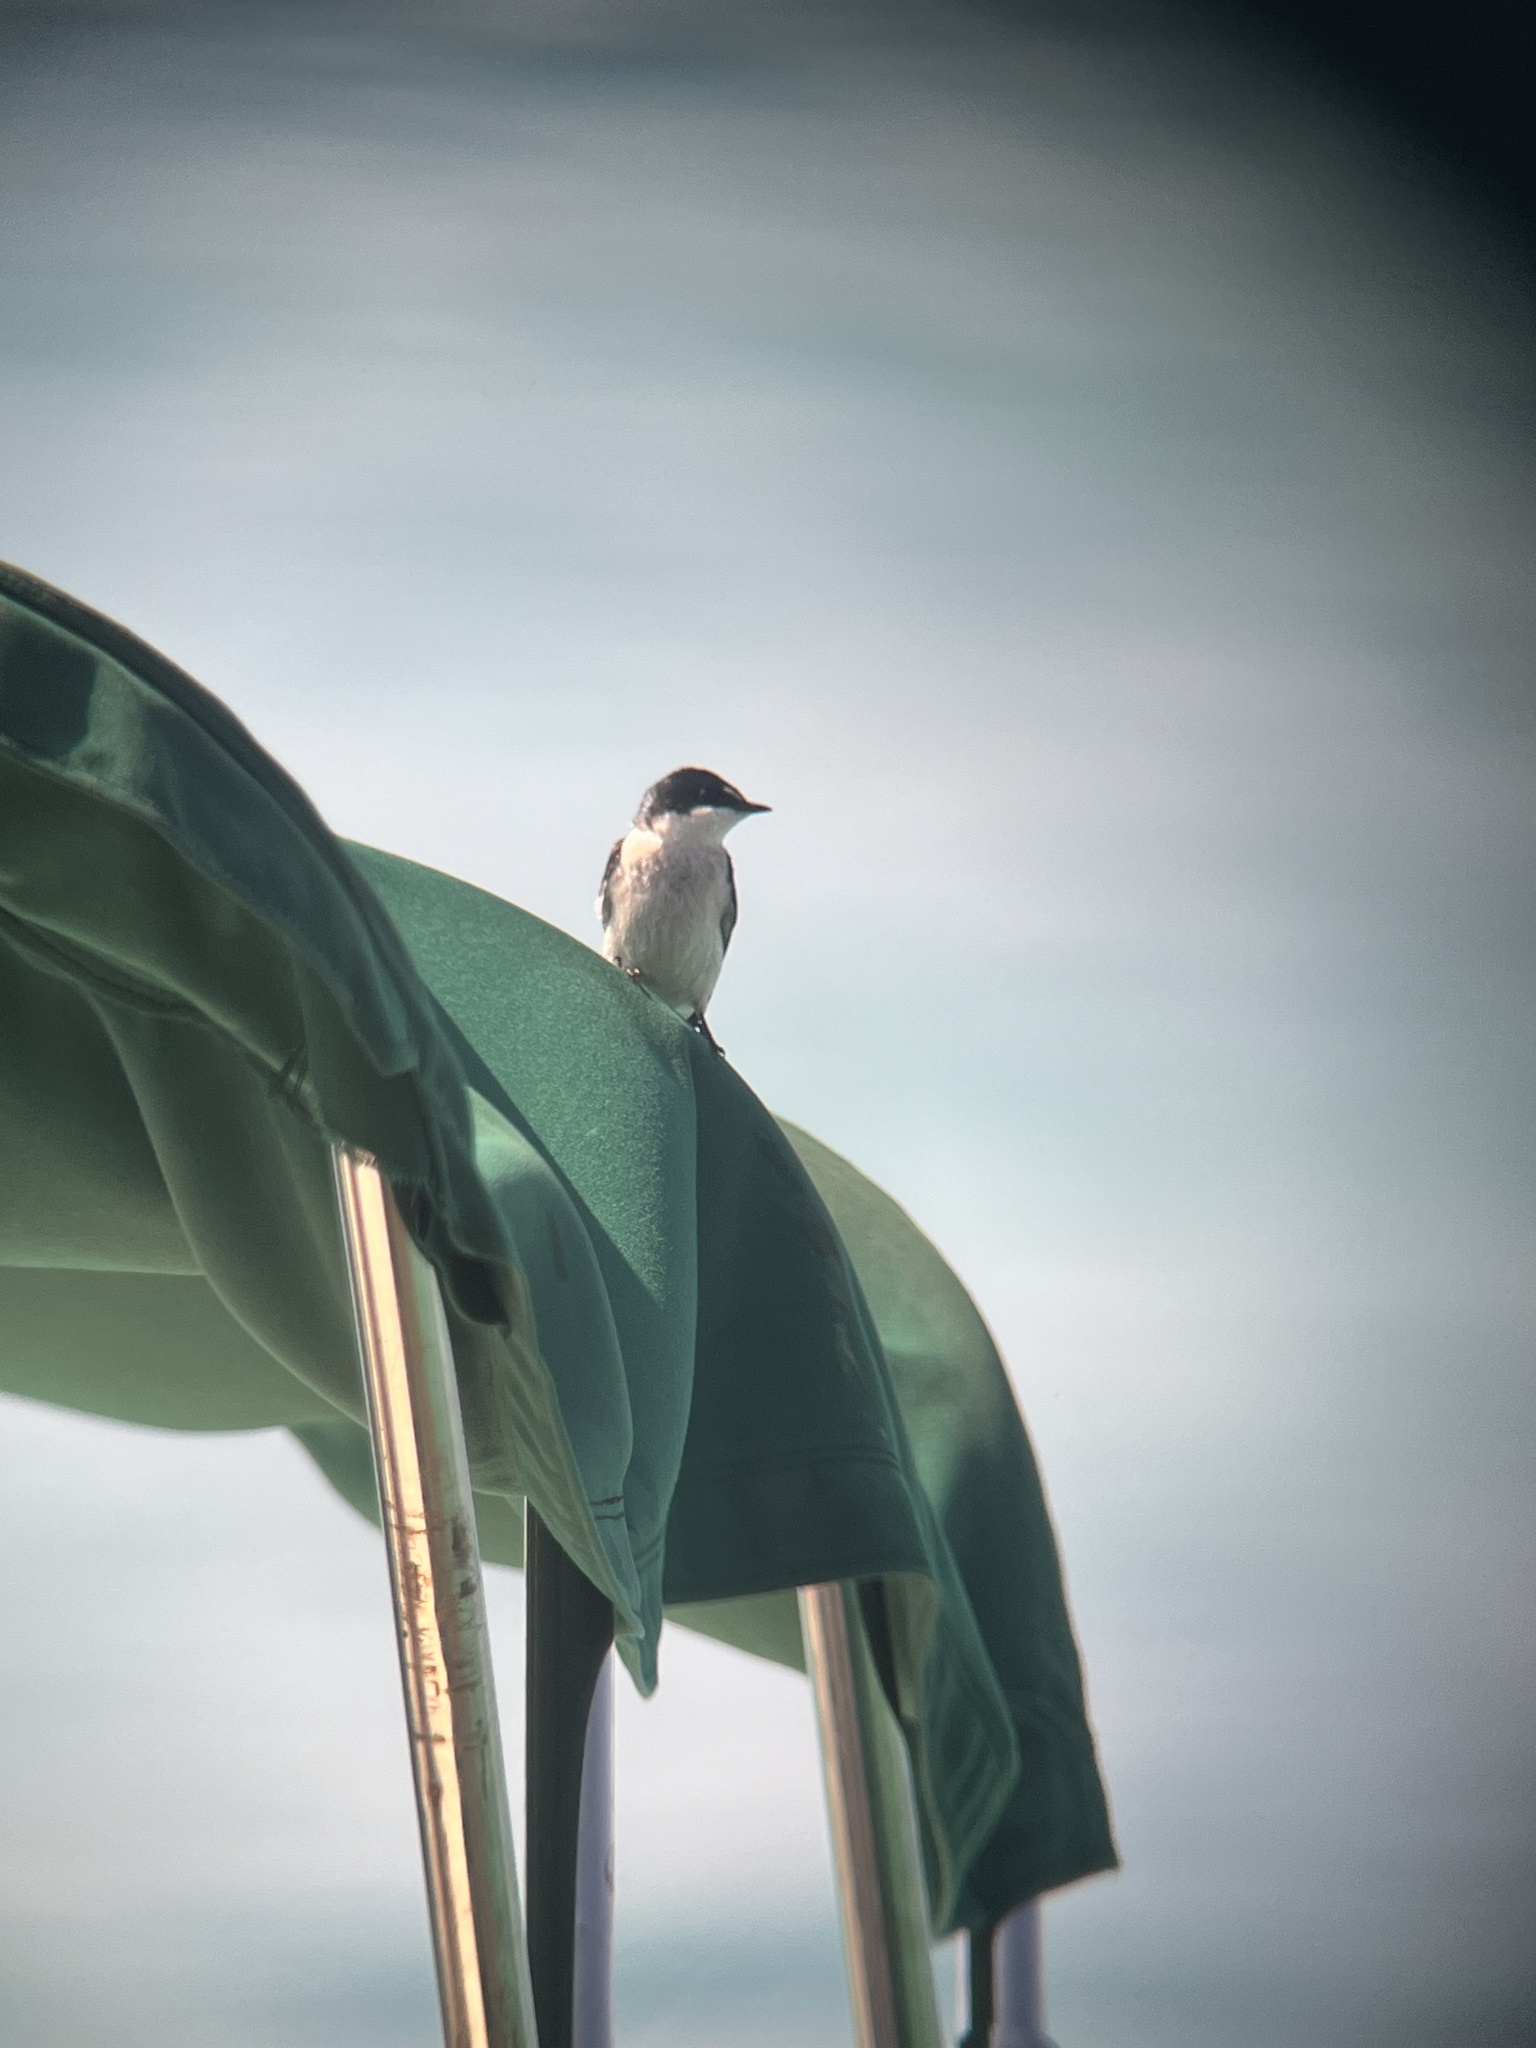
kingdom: Animalia
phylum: Chordata
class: Aves
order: Passeriformes
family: Hirundinidae
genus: Tachycineta
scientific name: Tachycineta albilinea
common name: Mangrove swallow
